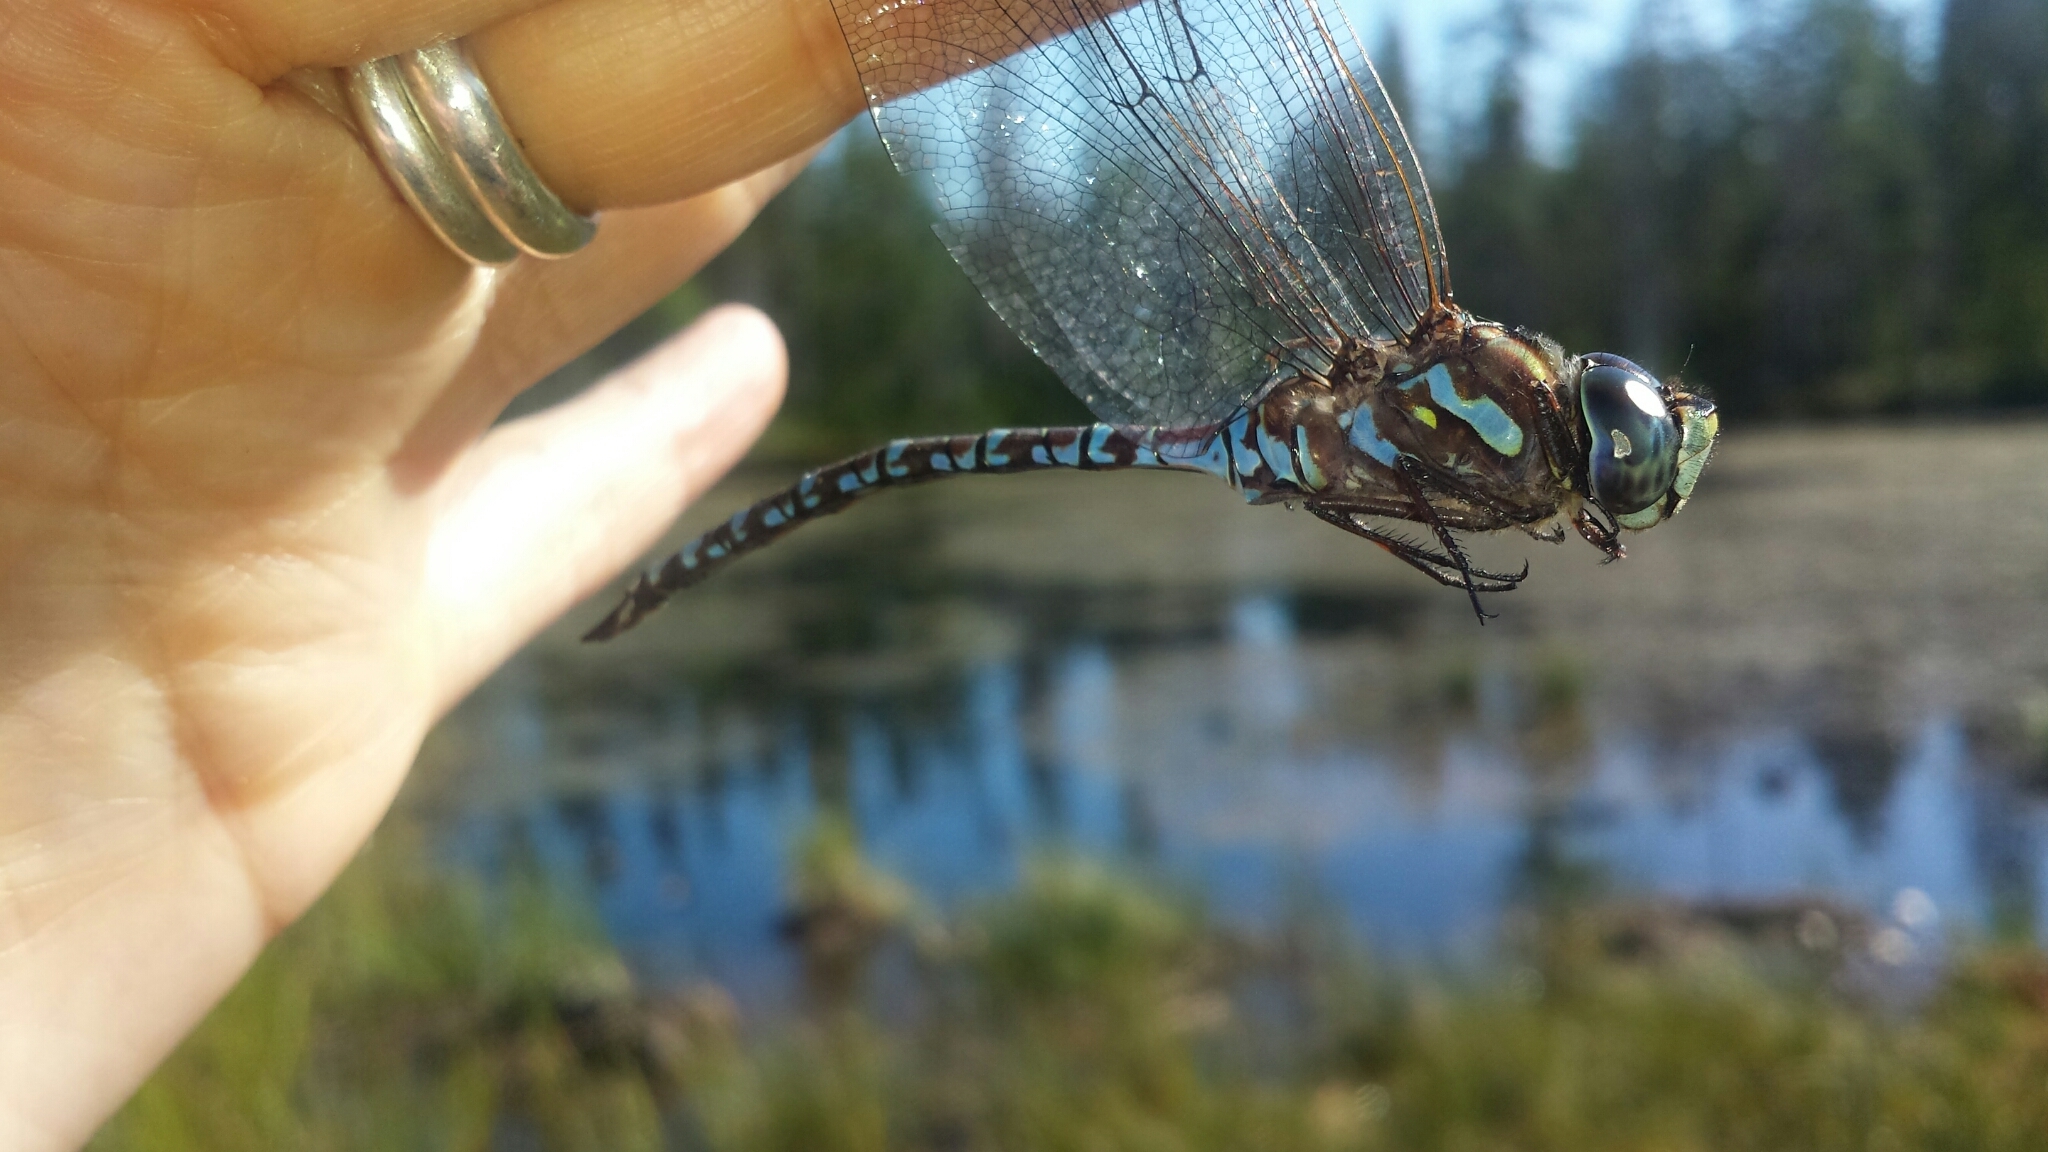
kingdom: Animalia
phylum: Arthropoda
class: Insecta
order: Odonata
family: Aeshnidae
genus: Aeshna
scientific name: Aeshna canadensis
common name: Canada darner
